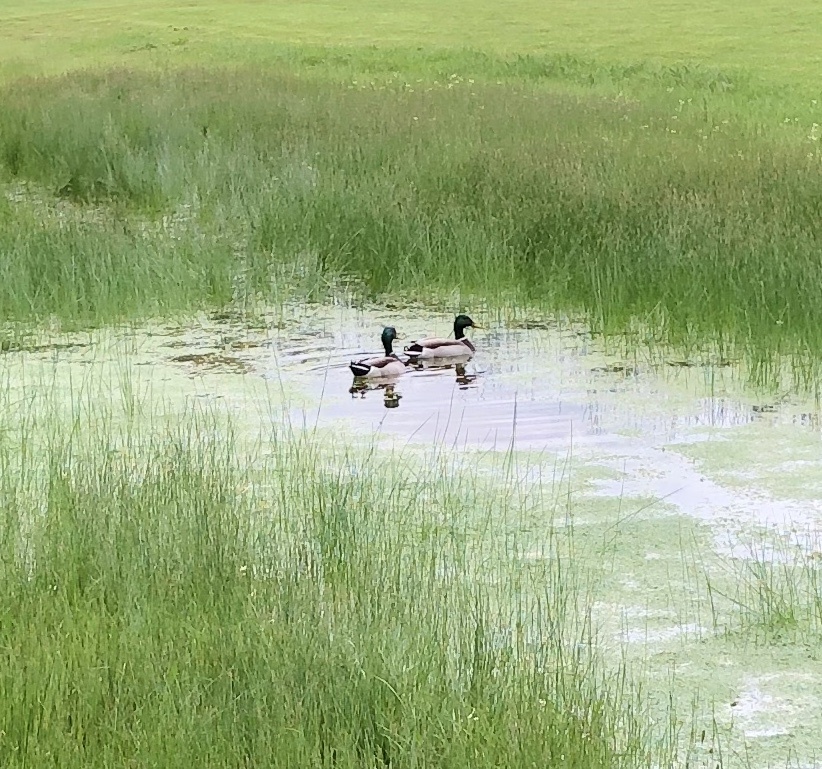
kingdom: Animalia
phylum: Chordata
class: Aves
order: Anseriformes
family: Anatidae
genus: Anas
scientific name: Anas platyrhynchos
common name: Mallard
